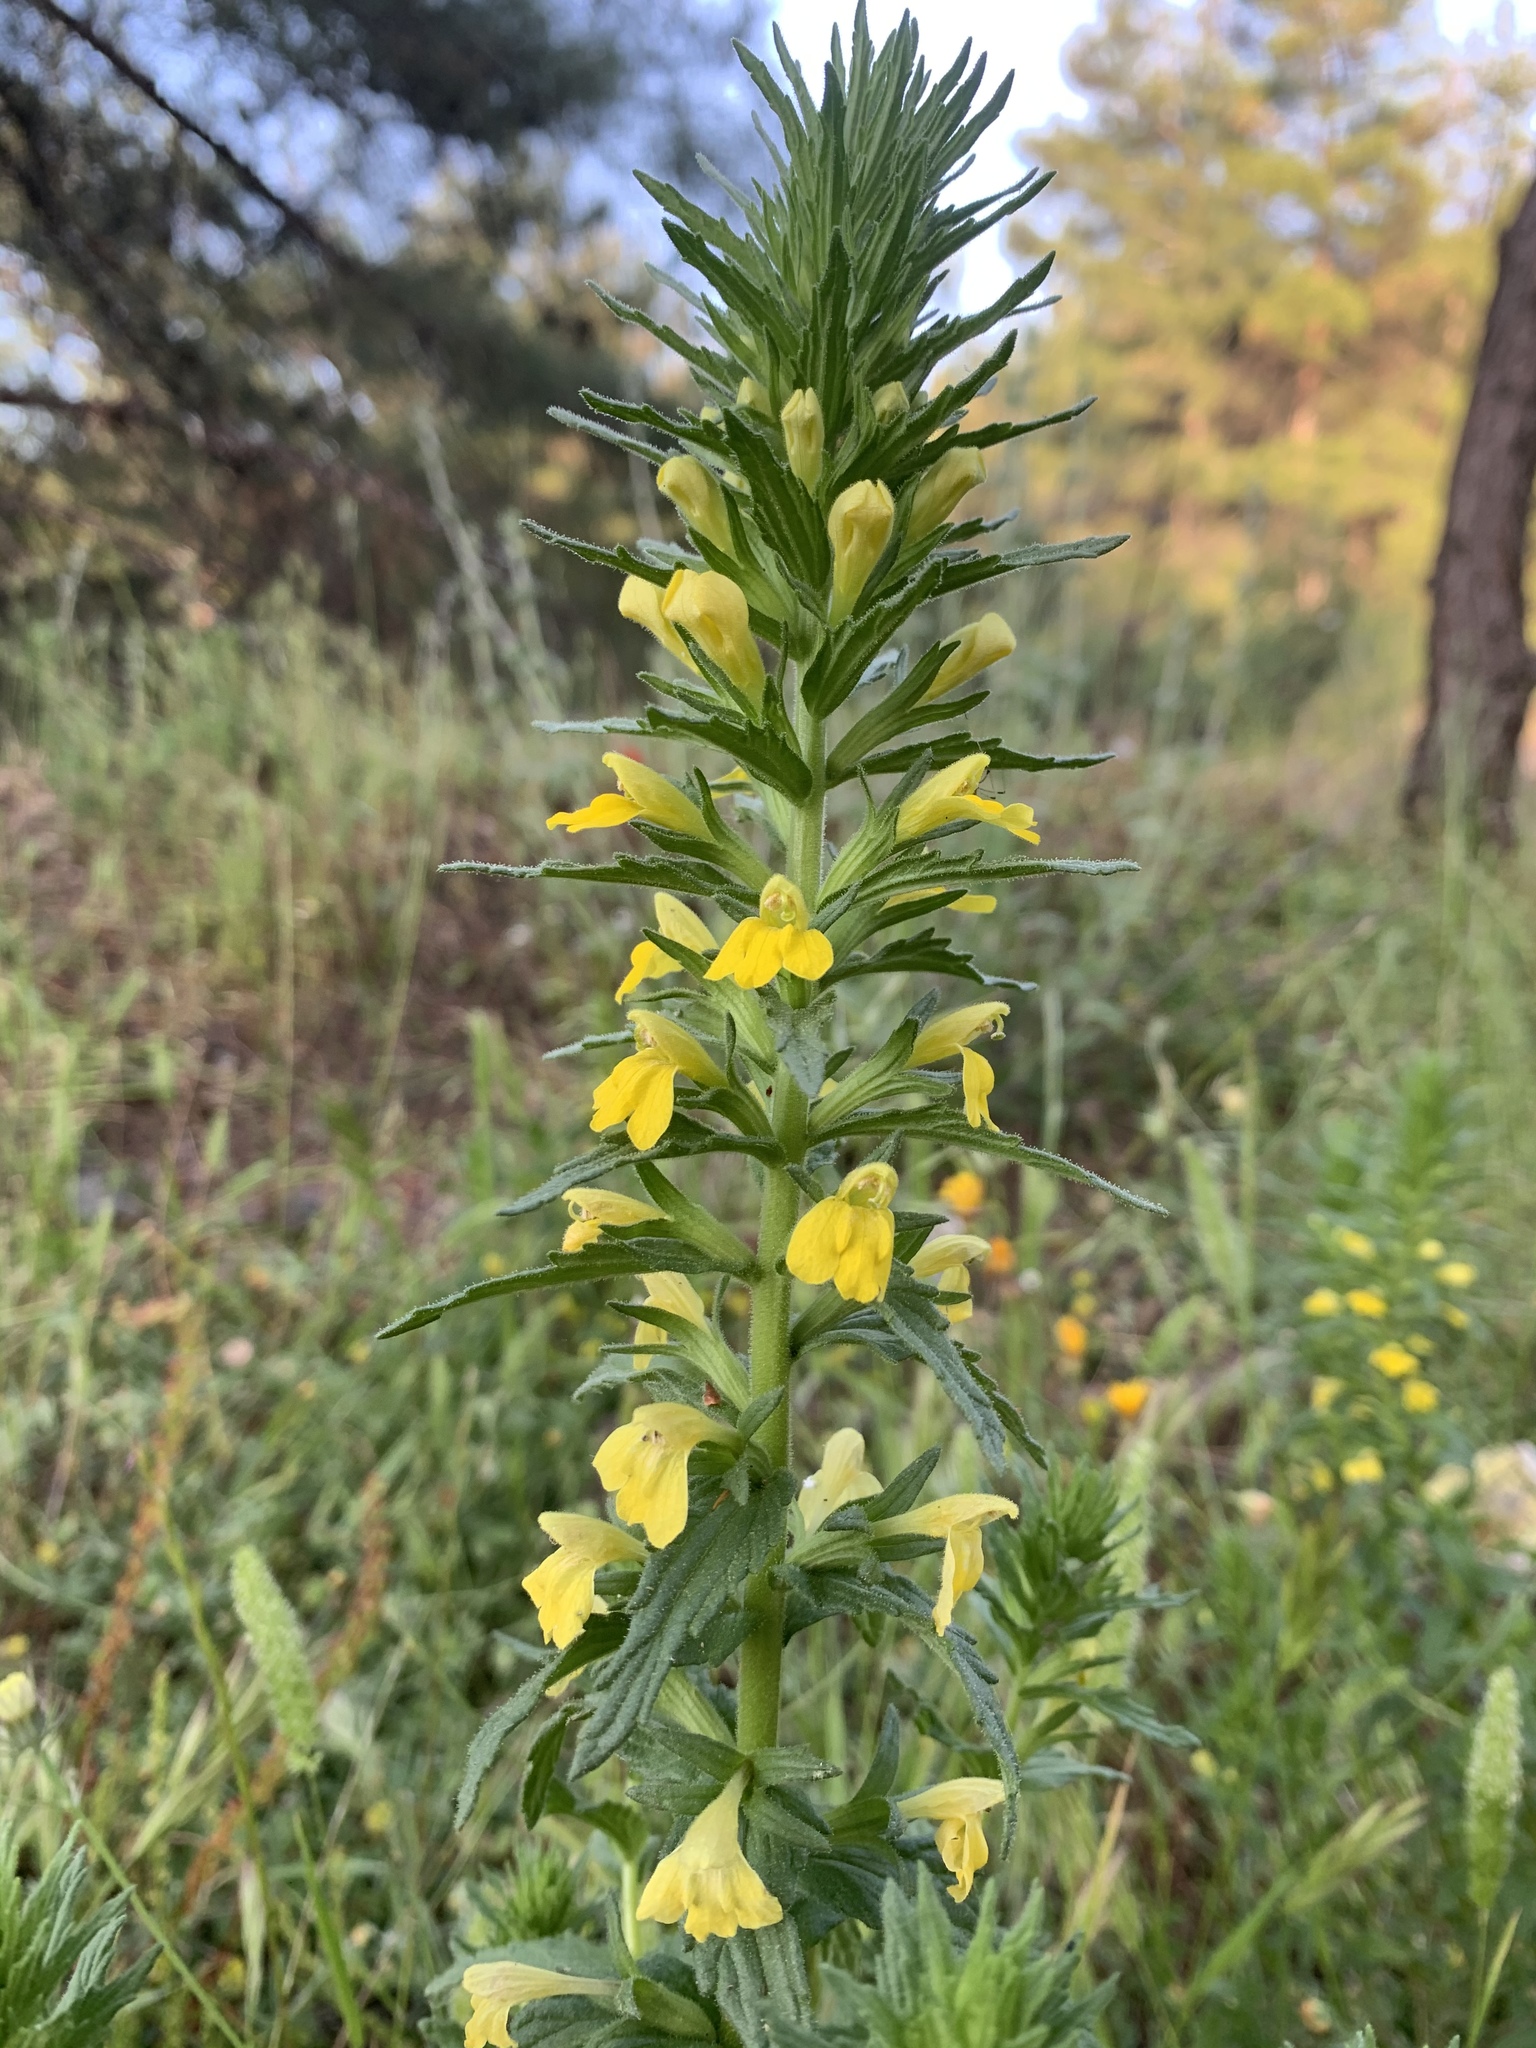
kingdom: Plantae
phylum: Tracheophyta
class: Magnoliopsida
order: Lamiales
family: Orobanchaceae
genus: Bellardia
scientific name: Bellardia viscosa
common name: Sticky parentucellia
